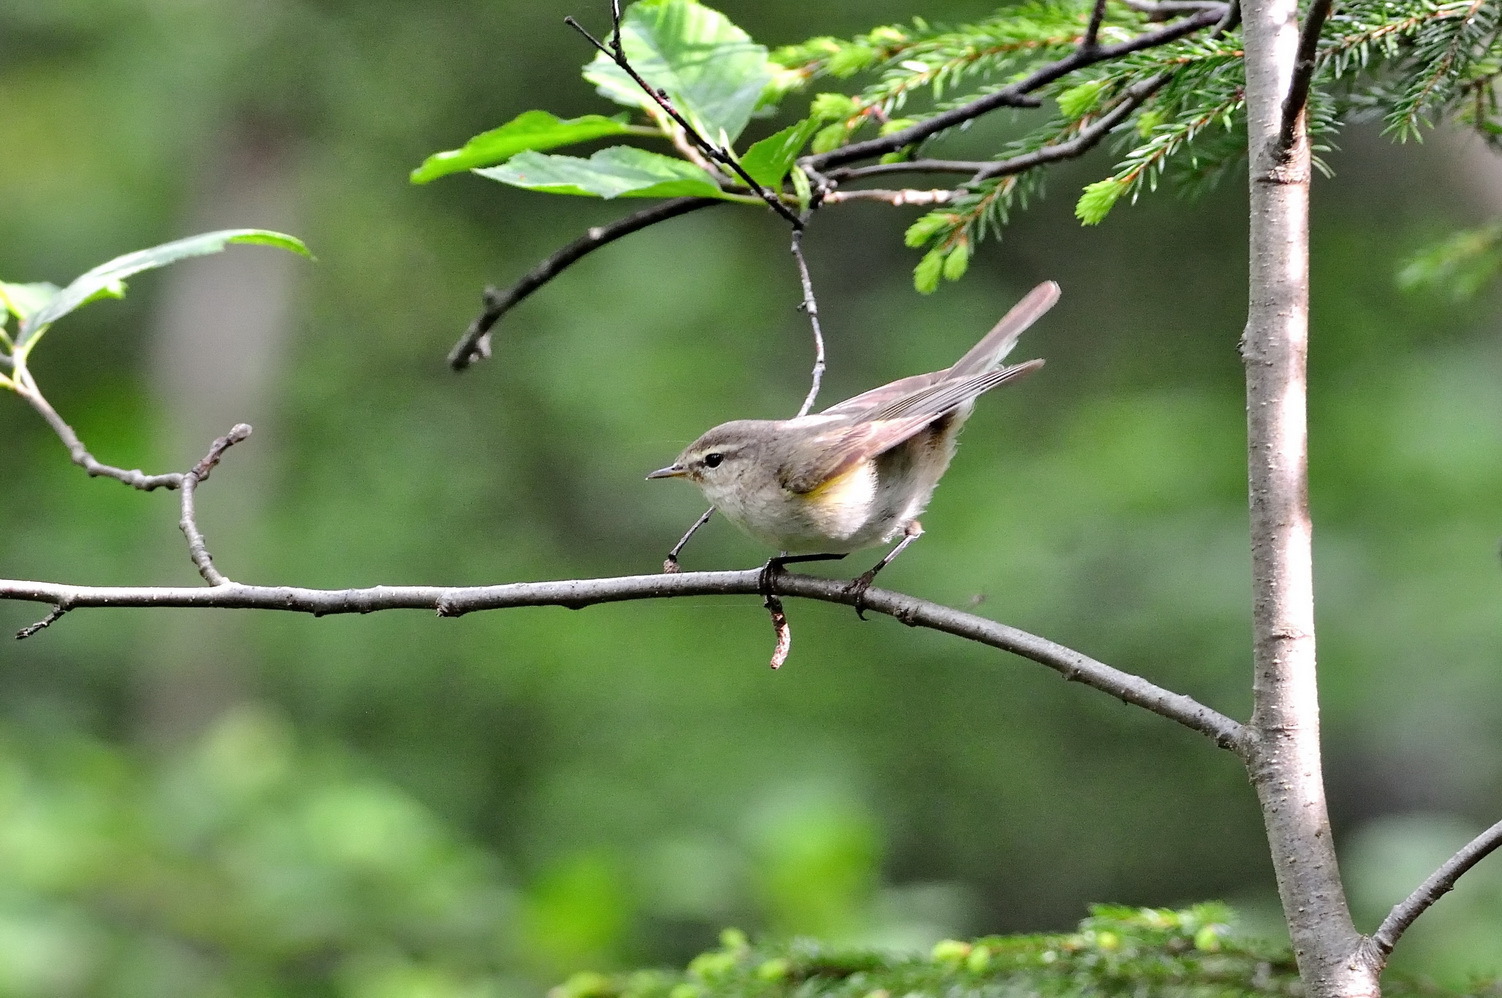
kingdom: Animalia
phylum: Chordata
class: Aves
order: Passeriformes
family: Phylloscopidae
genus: Phylloscopus
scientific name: Phylloscopus collybita
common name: Common chiffchaff
